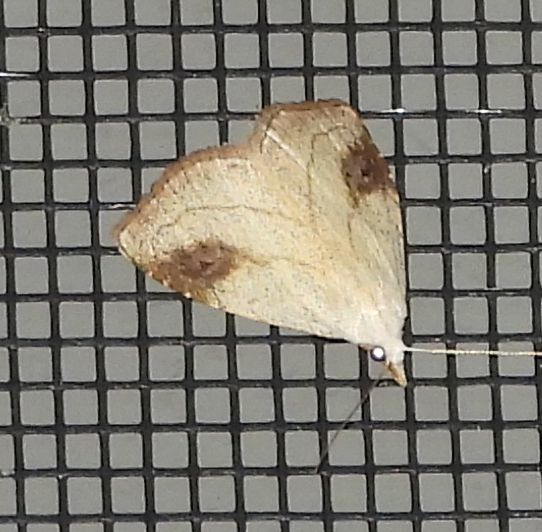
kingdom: Animalia
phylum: Arthropoda
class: Insecta
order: Lepidoptera
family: Erebidae
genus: Rivula
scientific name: Rivula propinqualis
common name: Spotted grass moth
